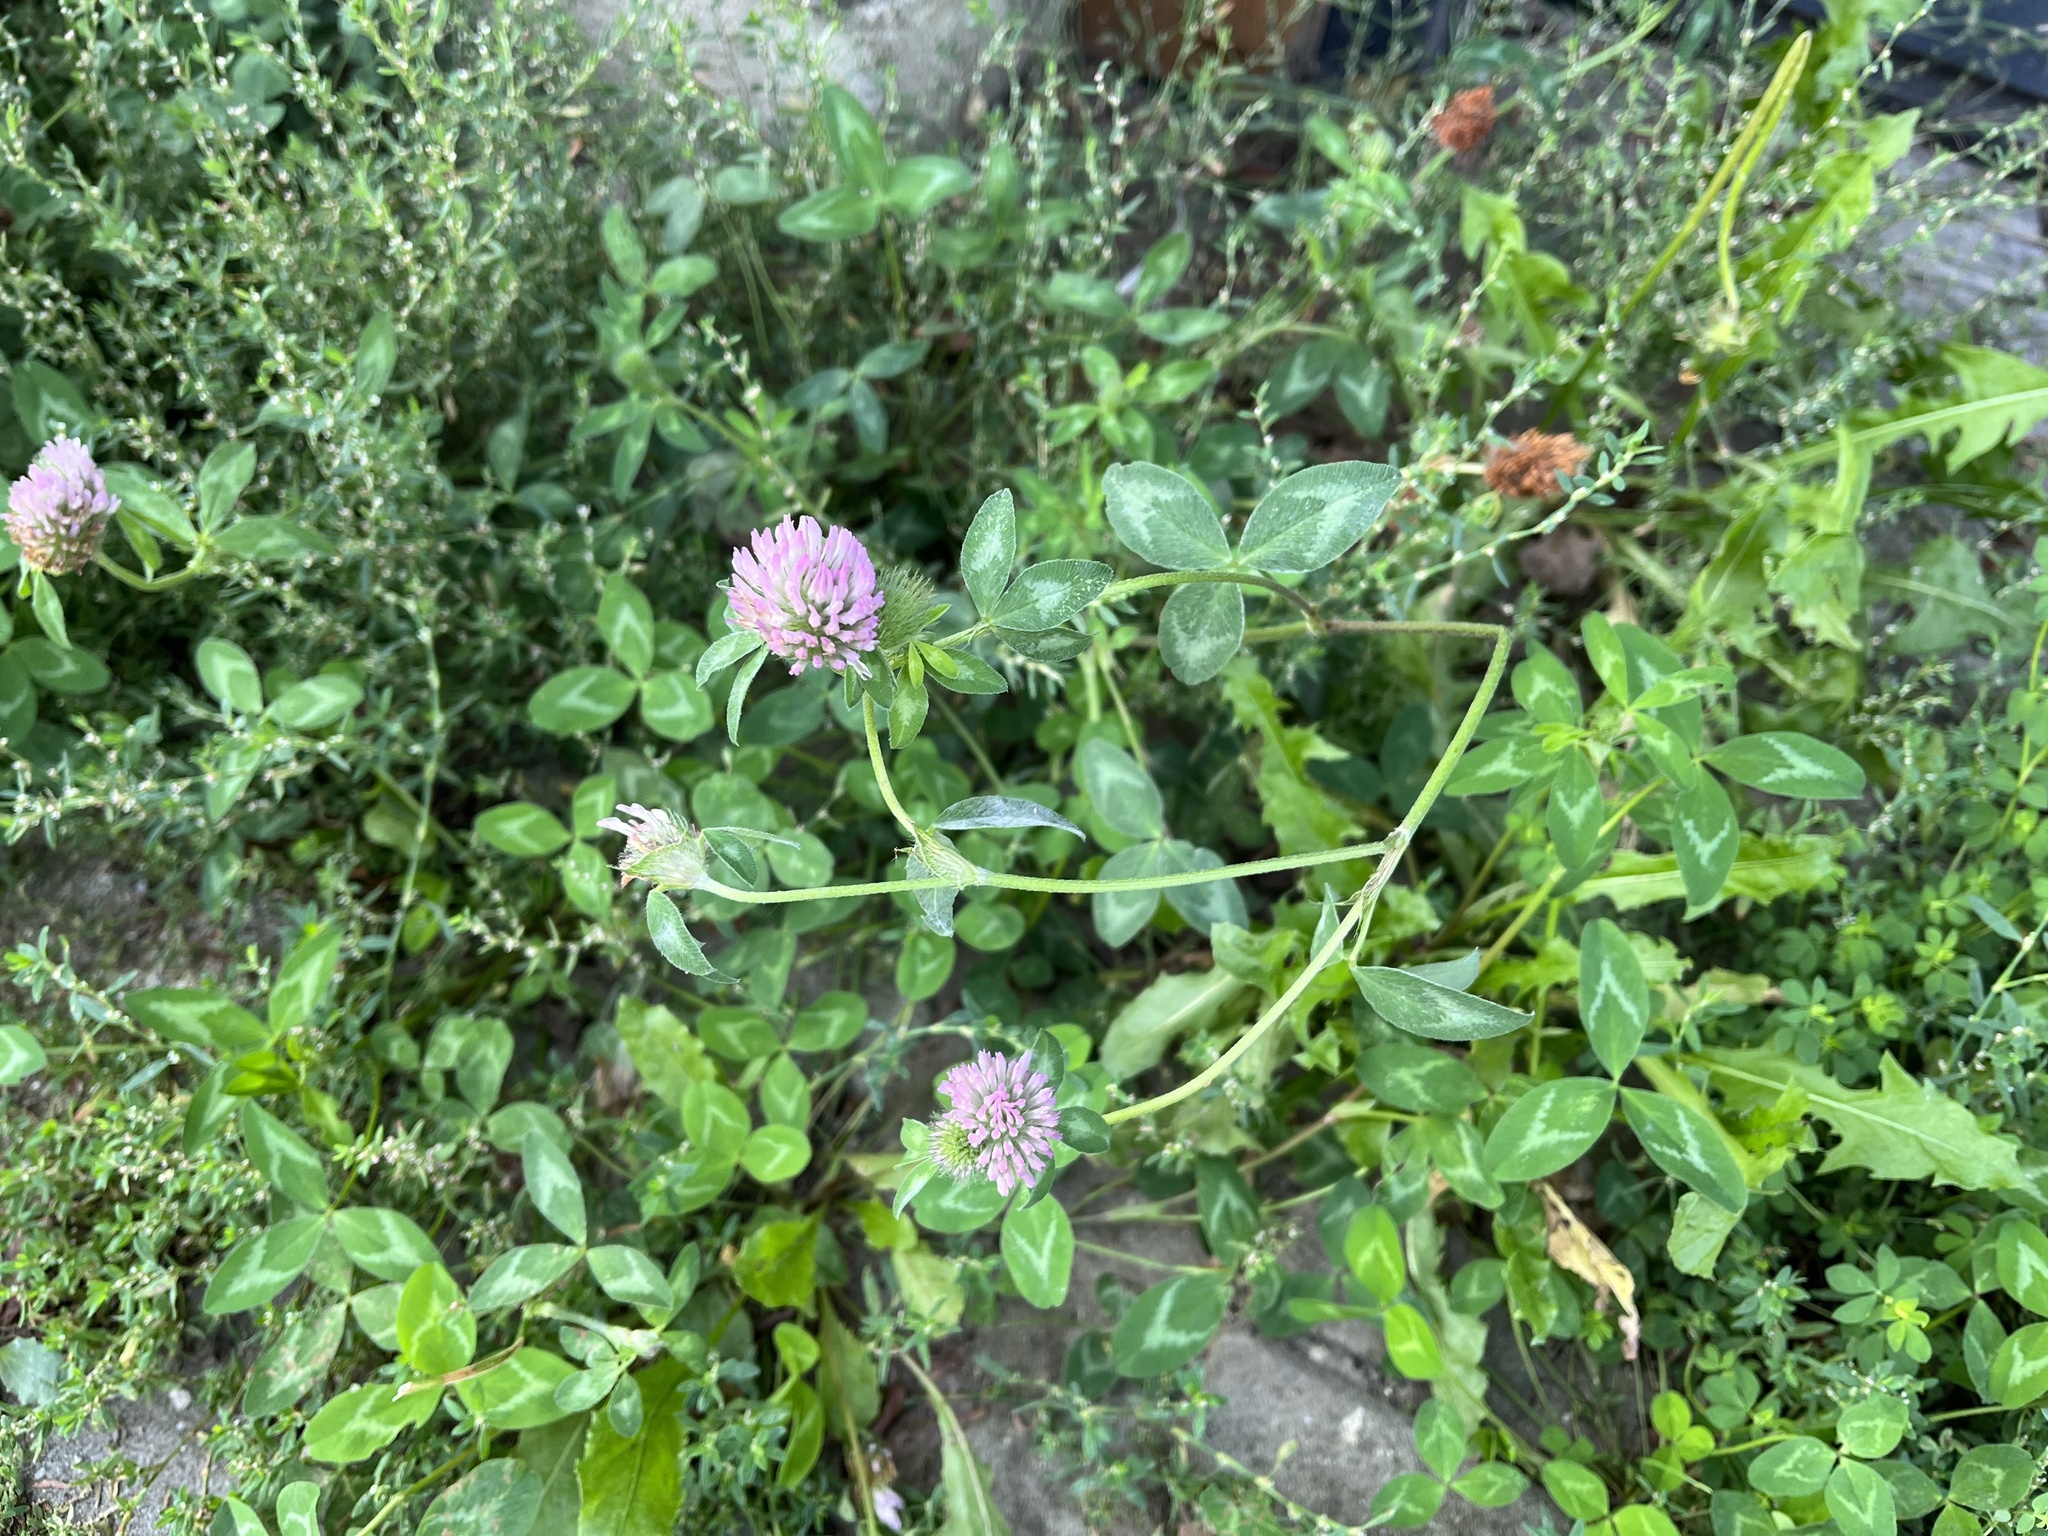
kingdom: Plantae
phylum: Tracheophyta
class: Magnoliopsida
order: Fabales
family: Fabaceae
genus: Trifolium
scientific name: Trifolium pratense
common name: Red clover
